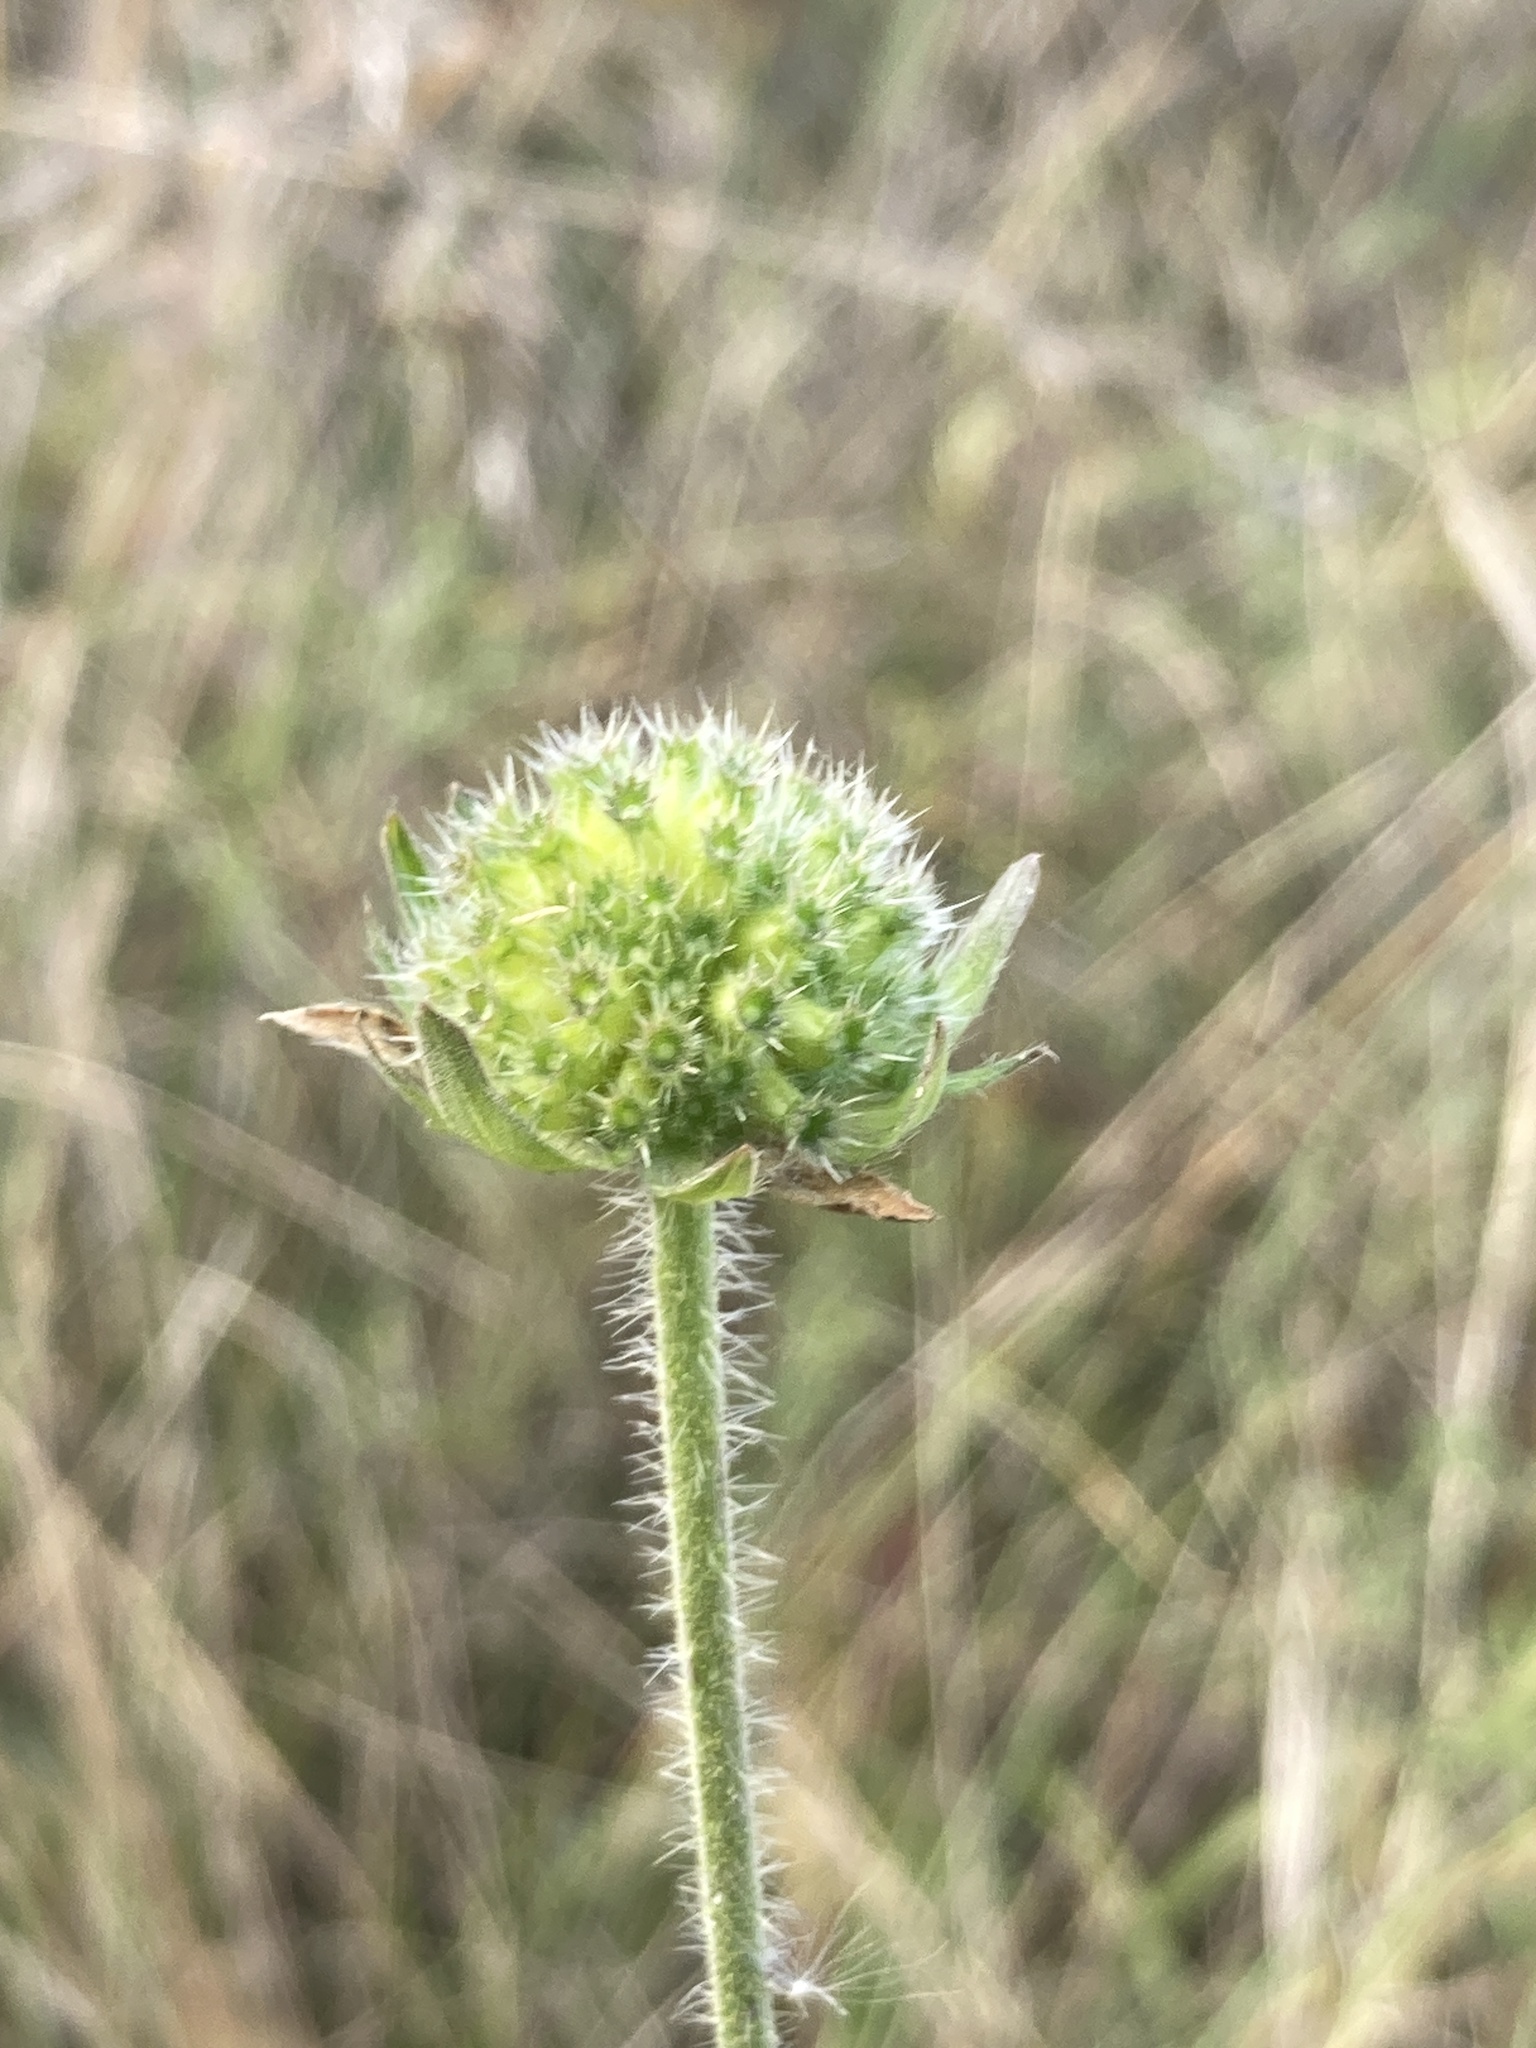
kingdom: Plantae
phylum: Tracheophyta
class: Magnoliopsida
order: Dipsacales
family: Caprifoliaceae
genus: Knautia
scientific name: Knautia arvensis
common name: Field scabiosa
